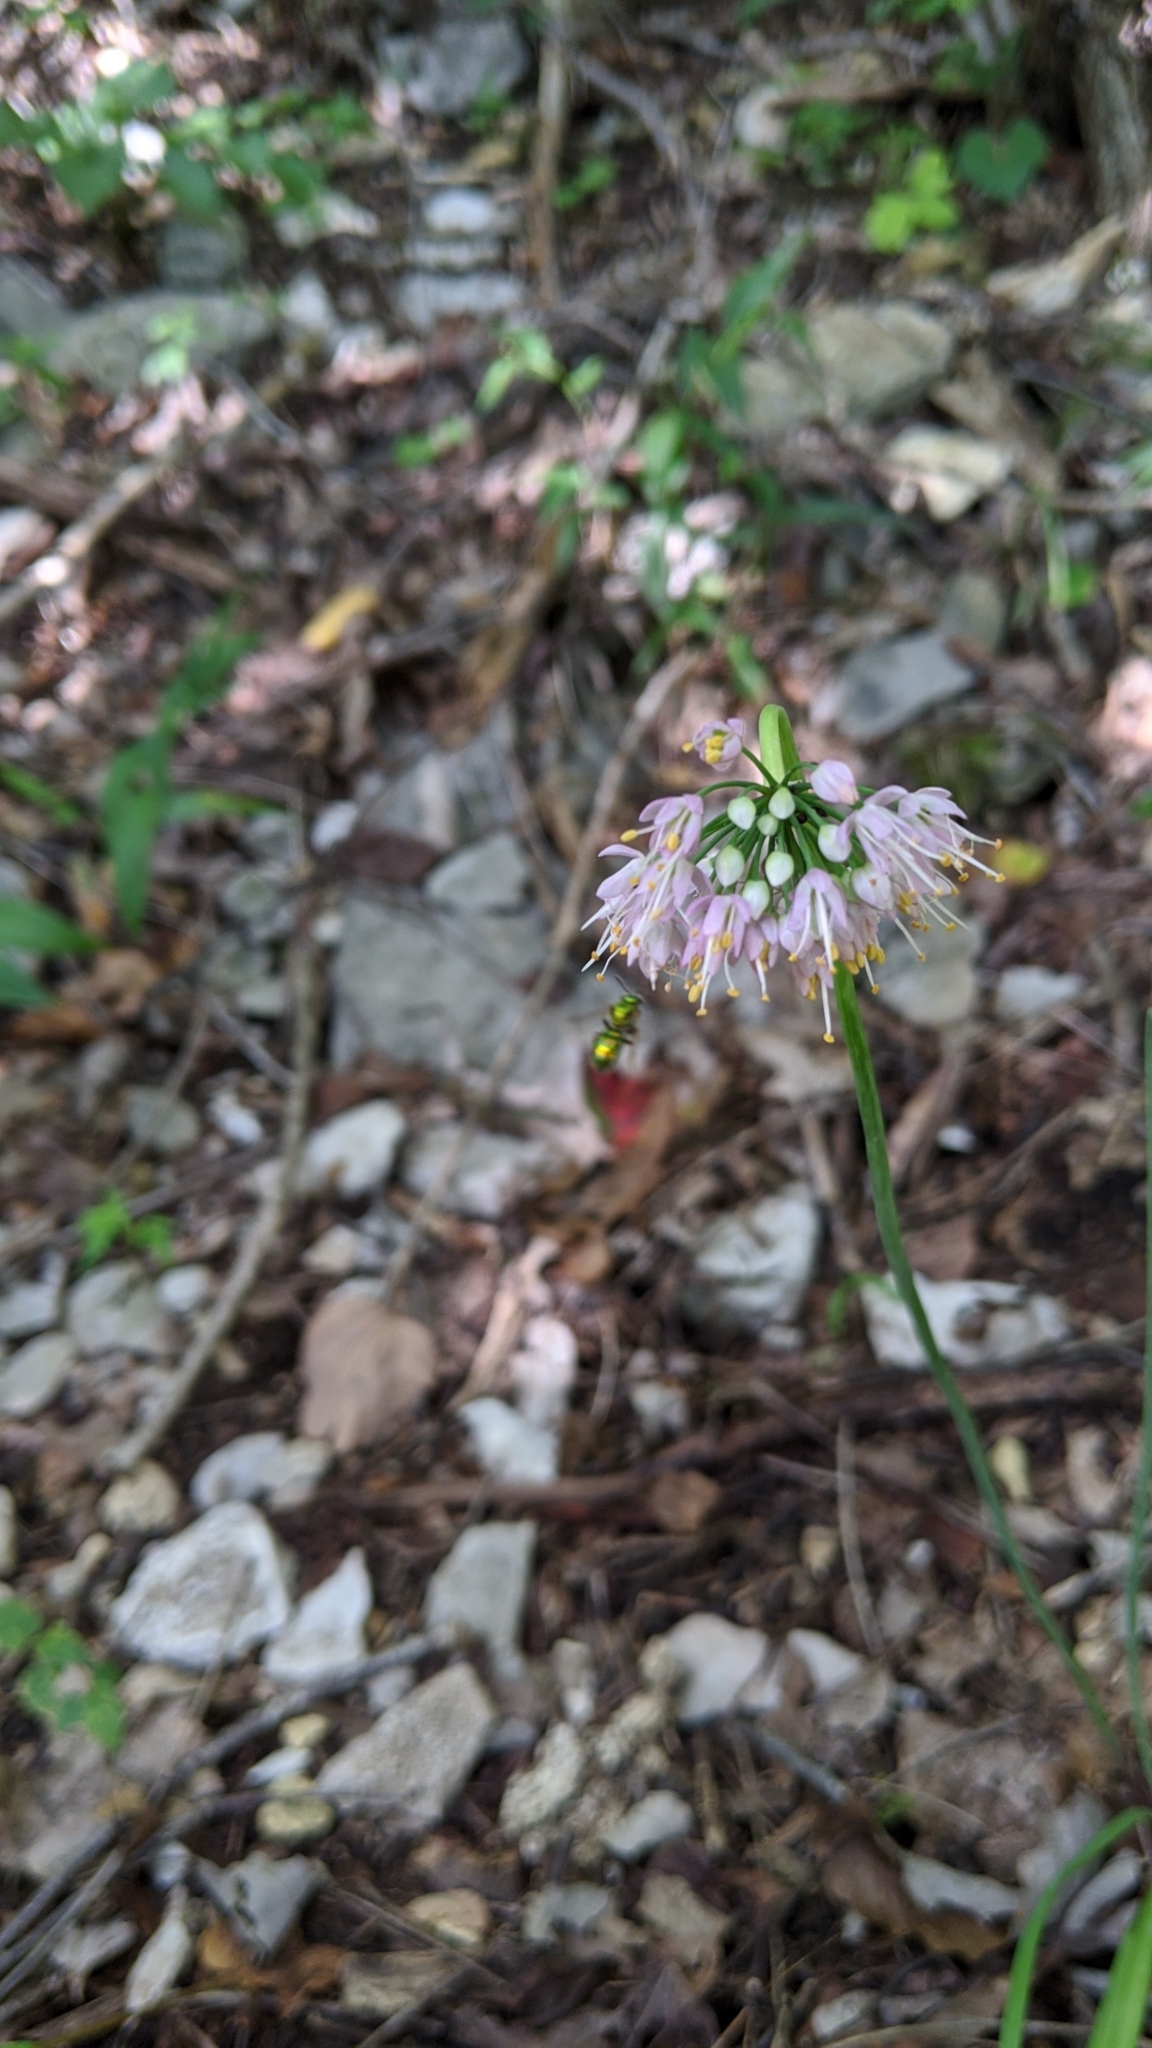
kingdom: Plantae
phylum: Tracheophyta
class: Liliopsida
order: Asparagales
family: Amaryllidaceae
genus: Allium
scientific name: Allium cernuum
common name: Nodding onion
